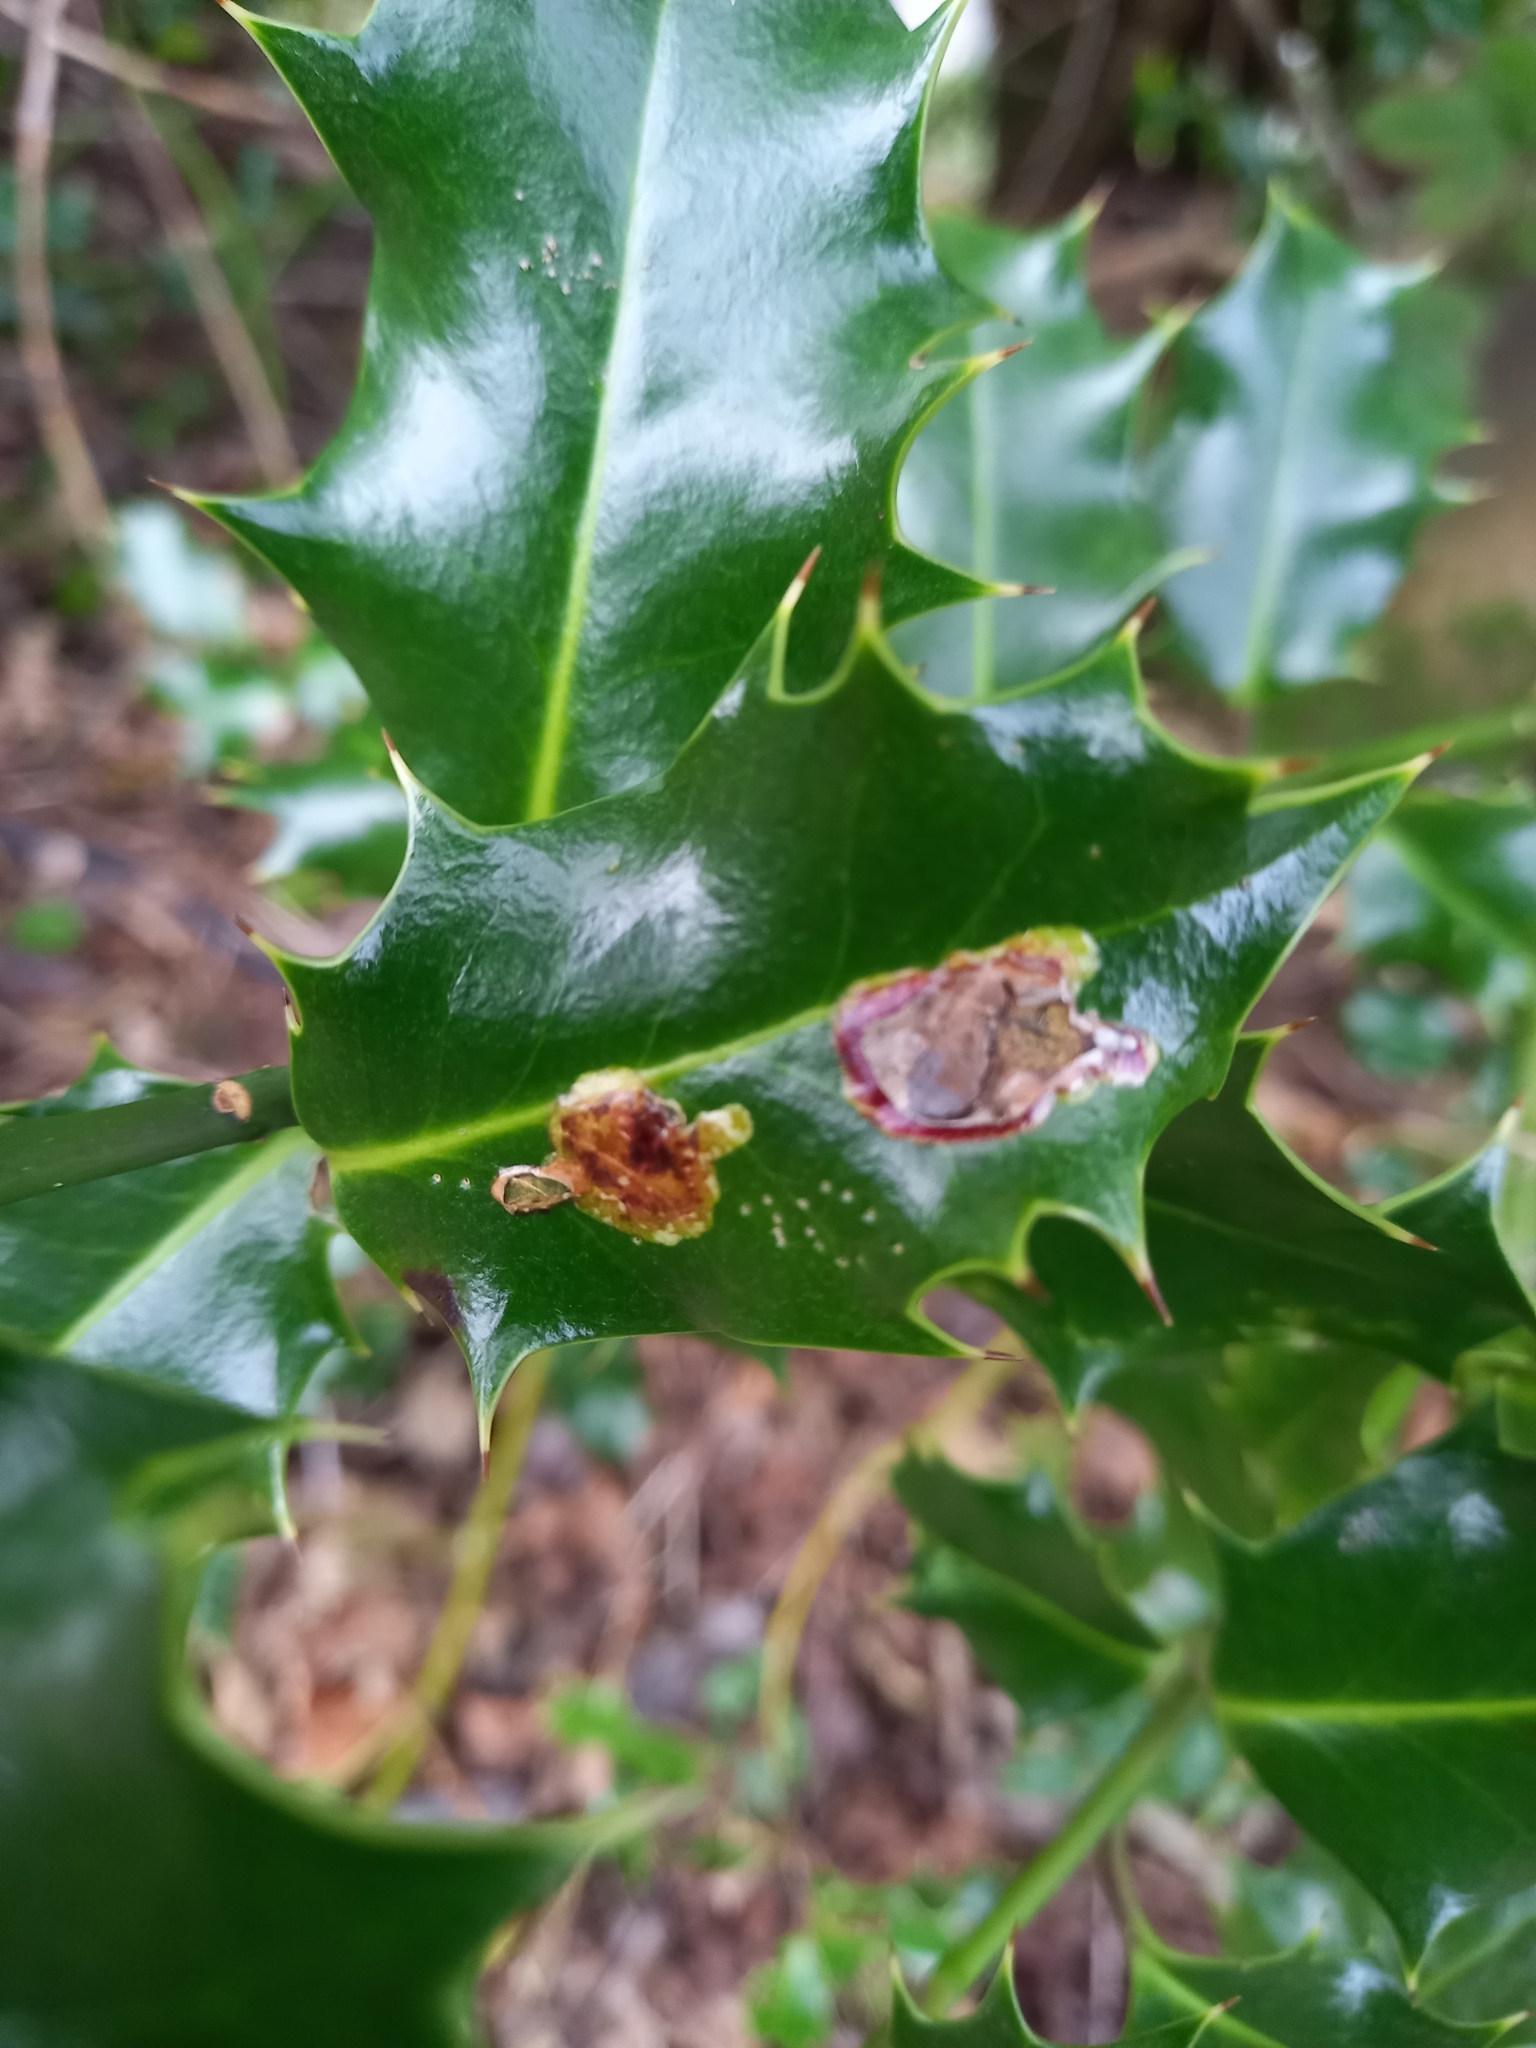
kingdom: Animalia
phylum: Arthropoda
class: Insecta
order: Diptera
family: Agromyzidae
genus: Phytomyza
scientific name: Phytomyza ilicis
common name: Holly leafminer
